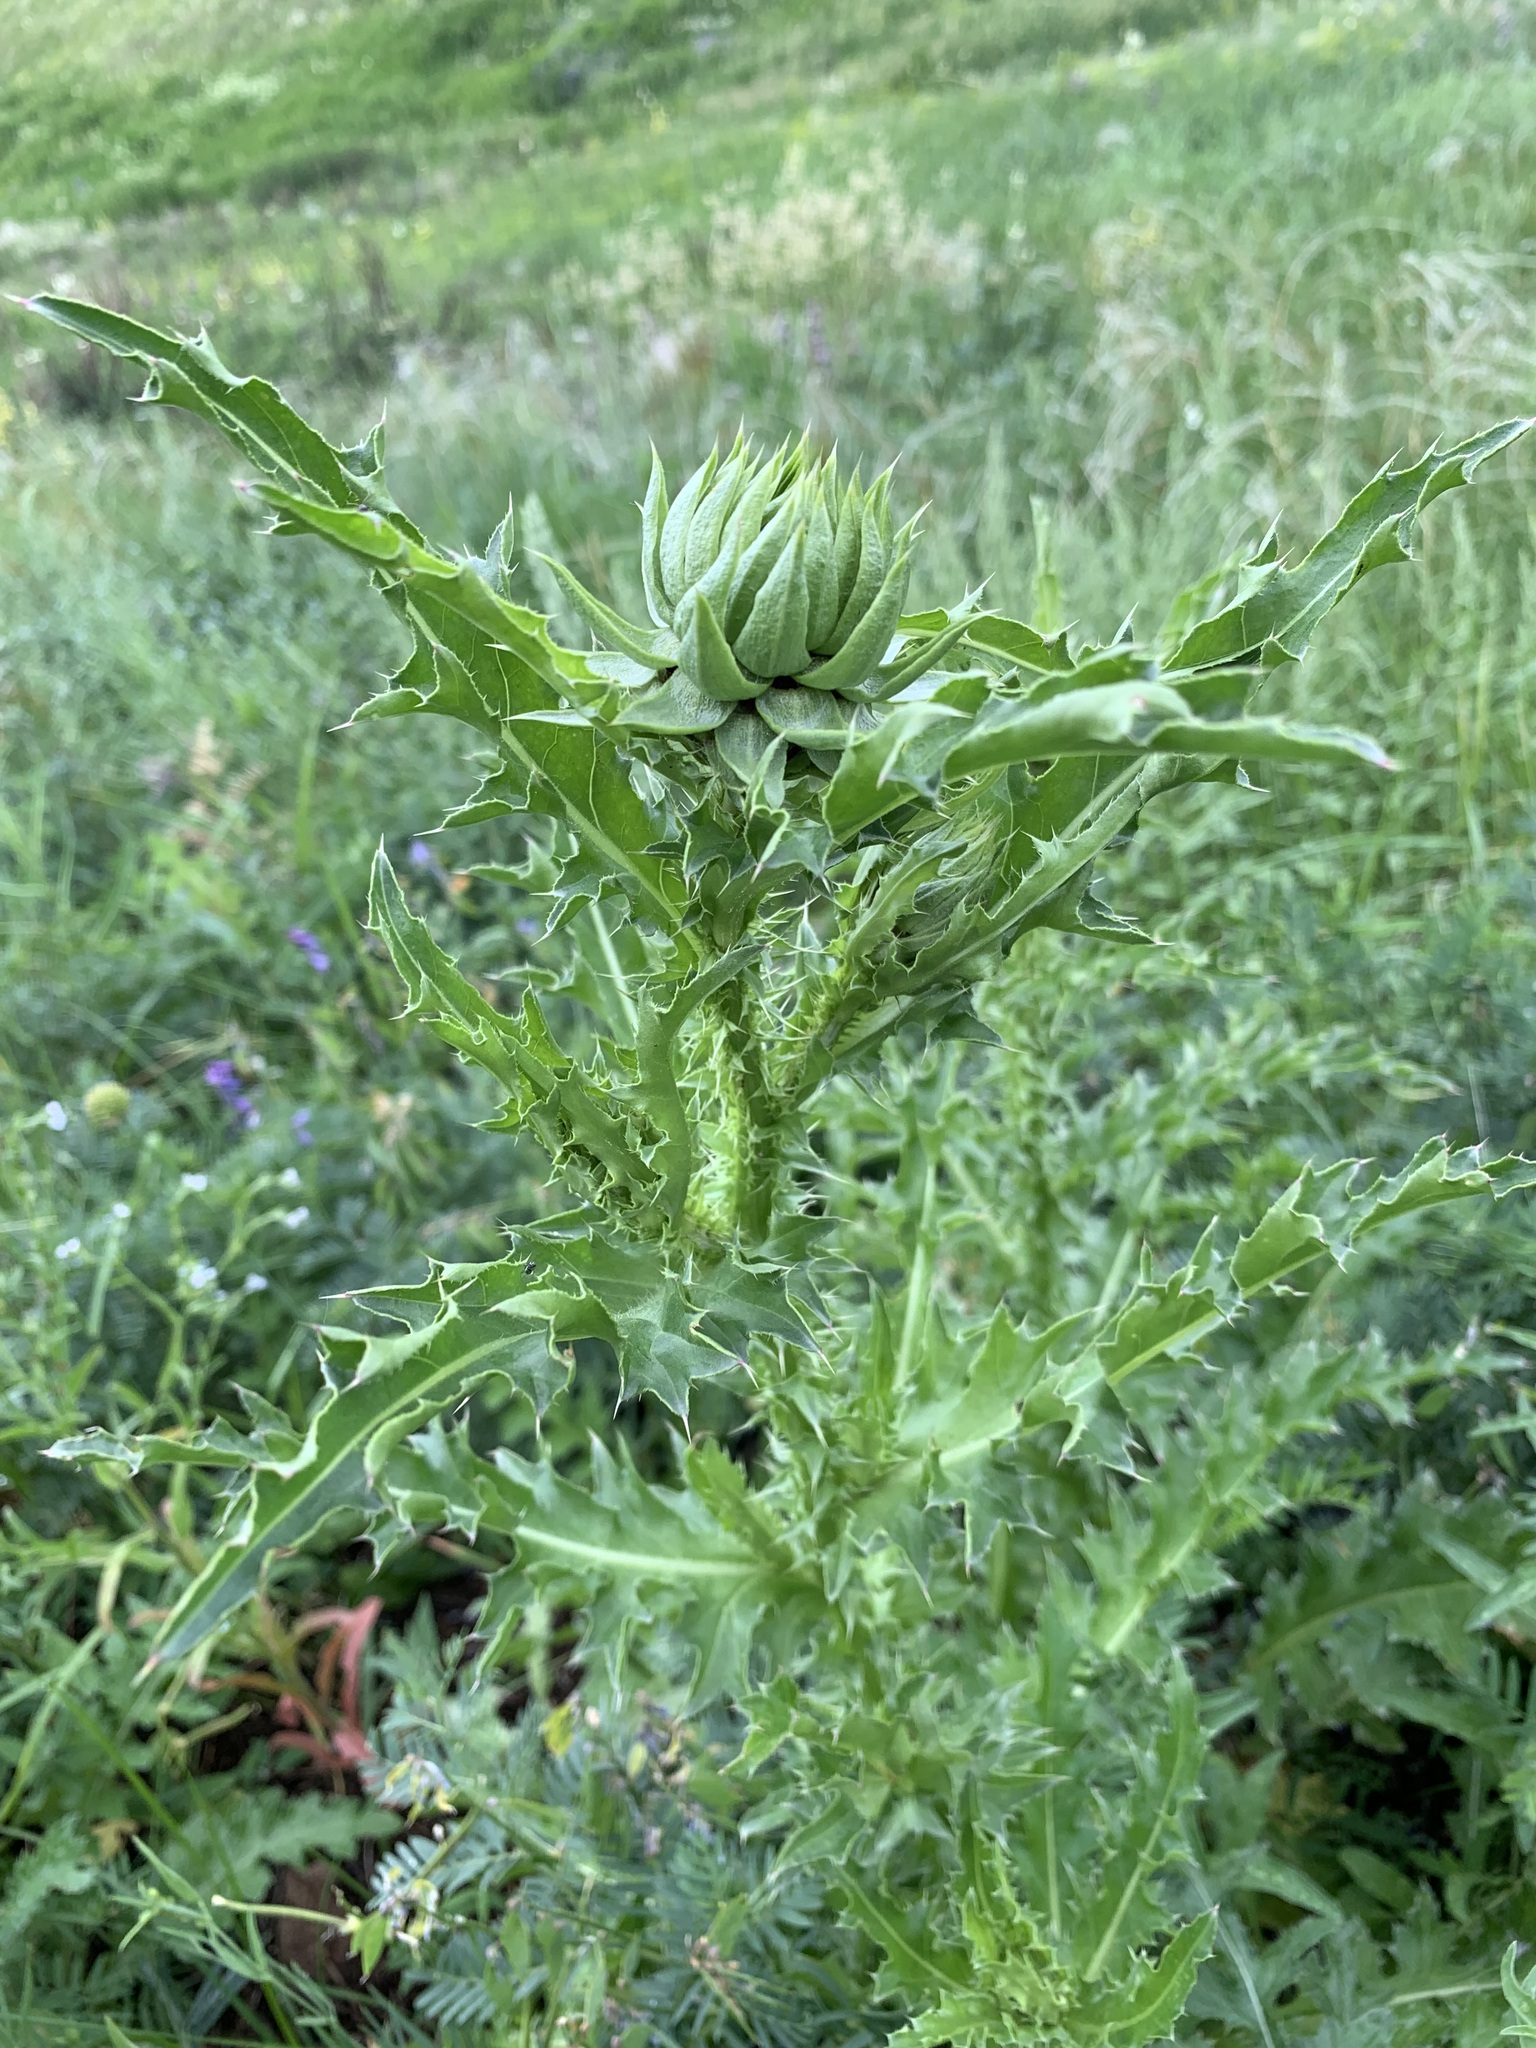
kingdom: Plantae
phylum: Tracheophyta
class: Magnoliopsida
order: Asterales
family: Asteraceae
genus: Carduus
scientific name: Carduus nutans
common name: Musk thistle
